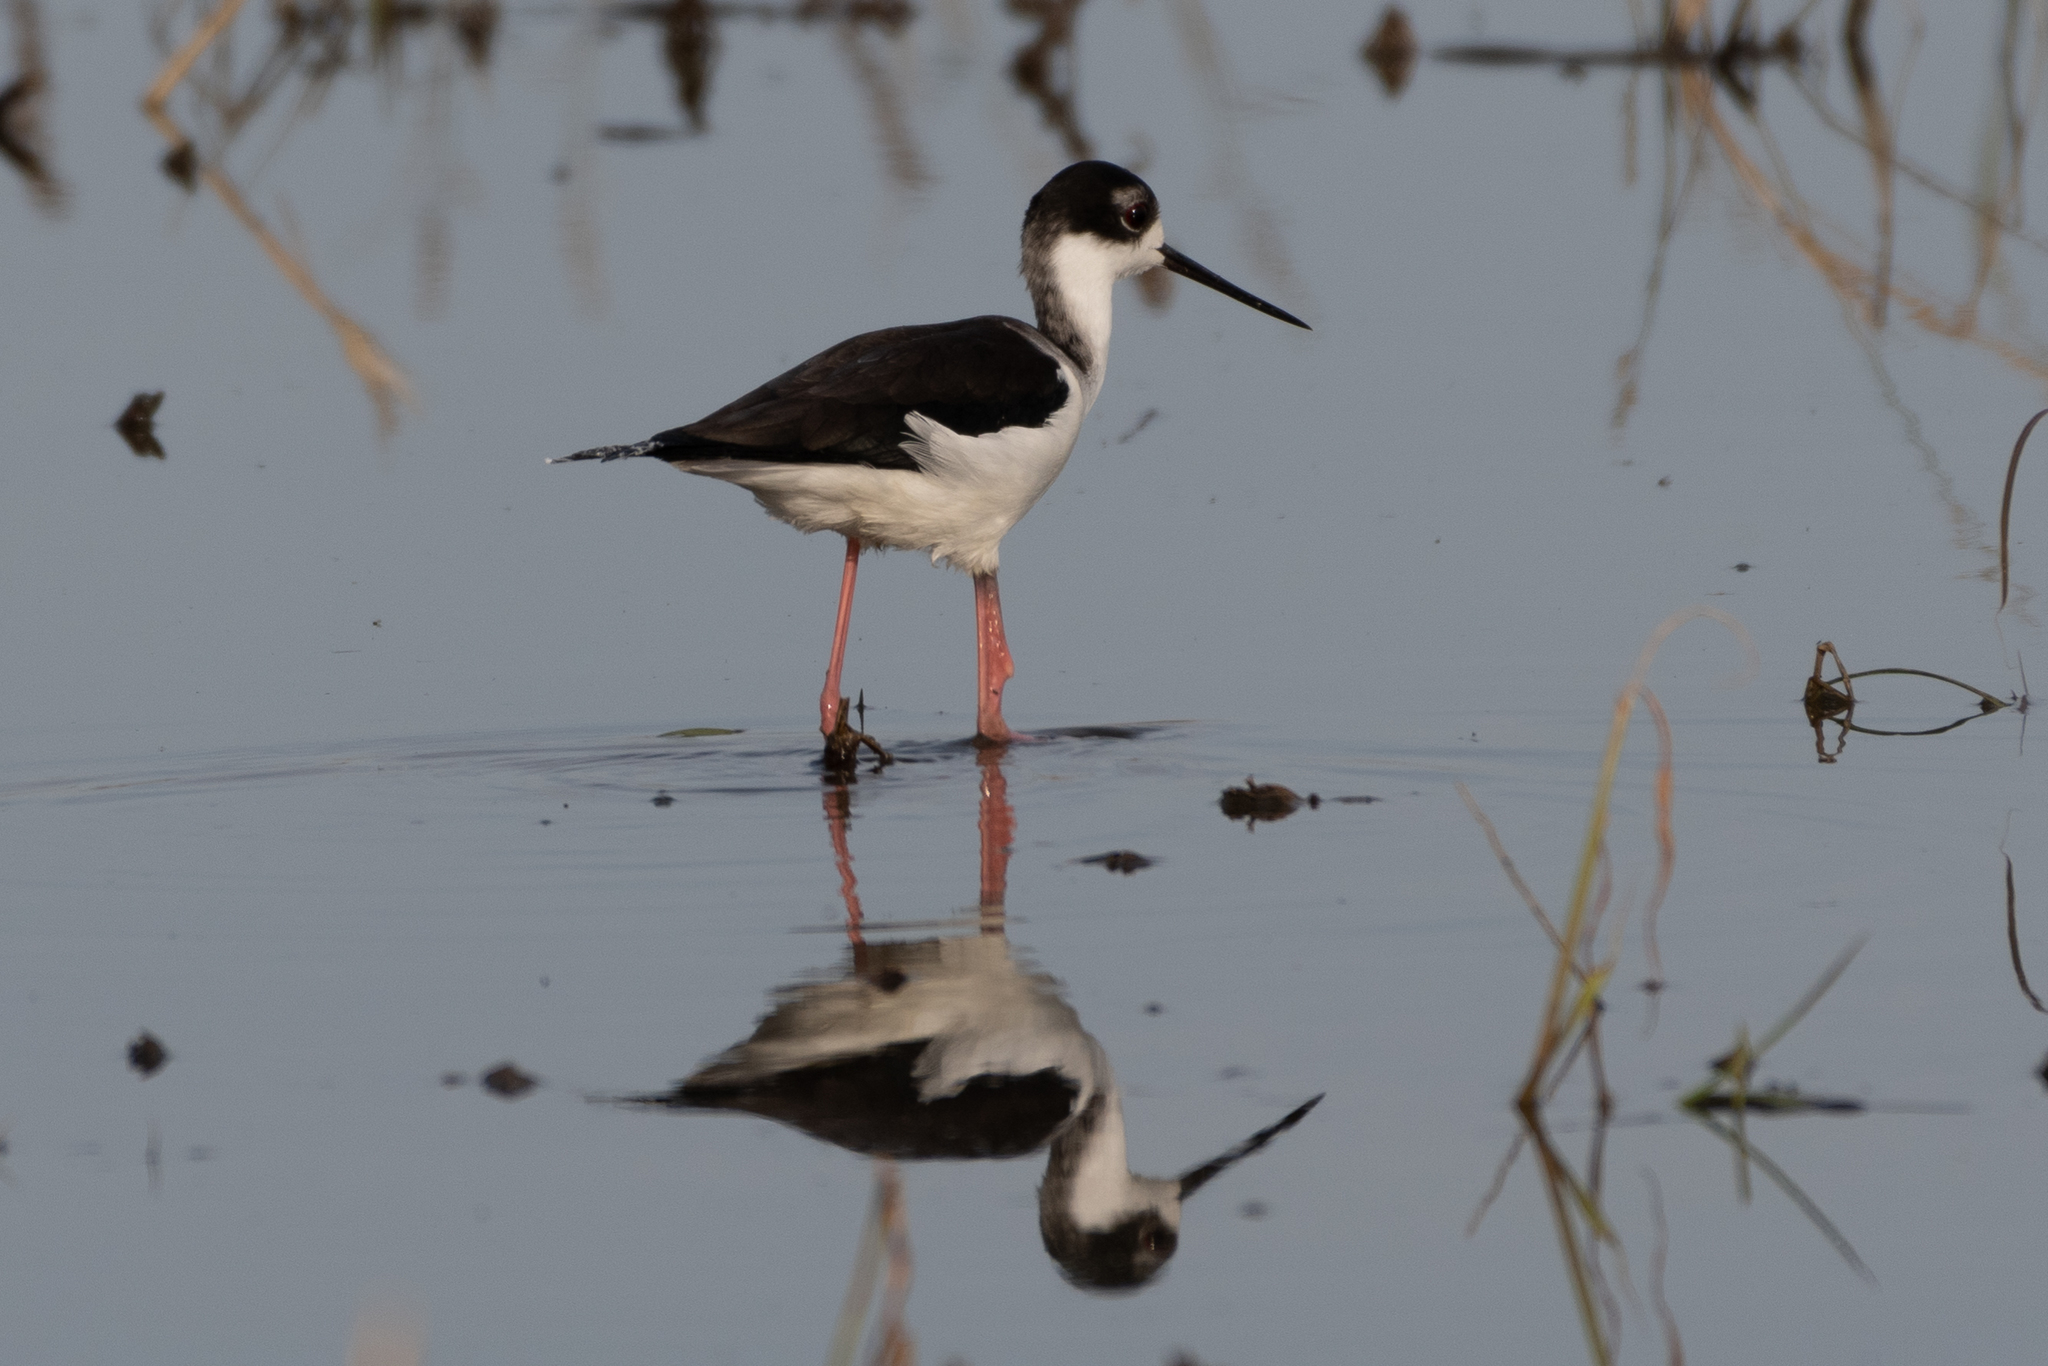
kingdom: Animalia
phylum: Chordata
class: Aves
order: Charadriiformes
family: Recurvirostridae
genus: Himantopus
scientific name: Himantopus mexicanus
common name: Black-necked stilt
